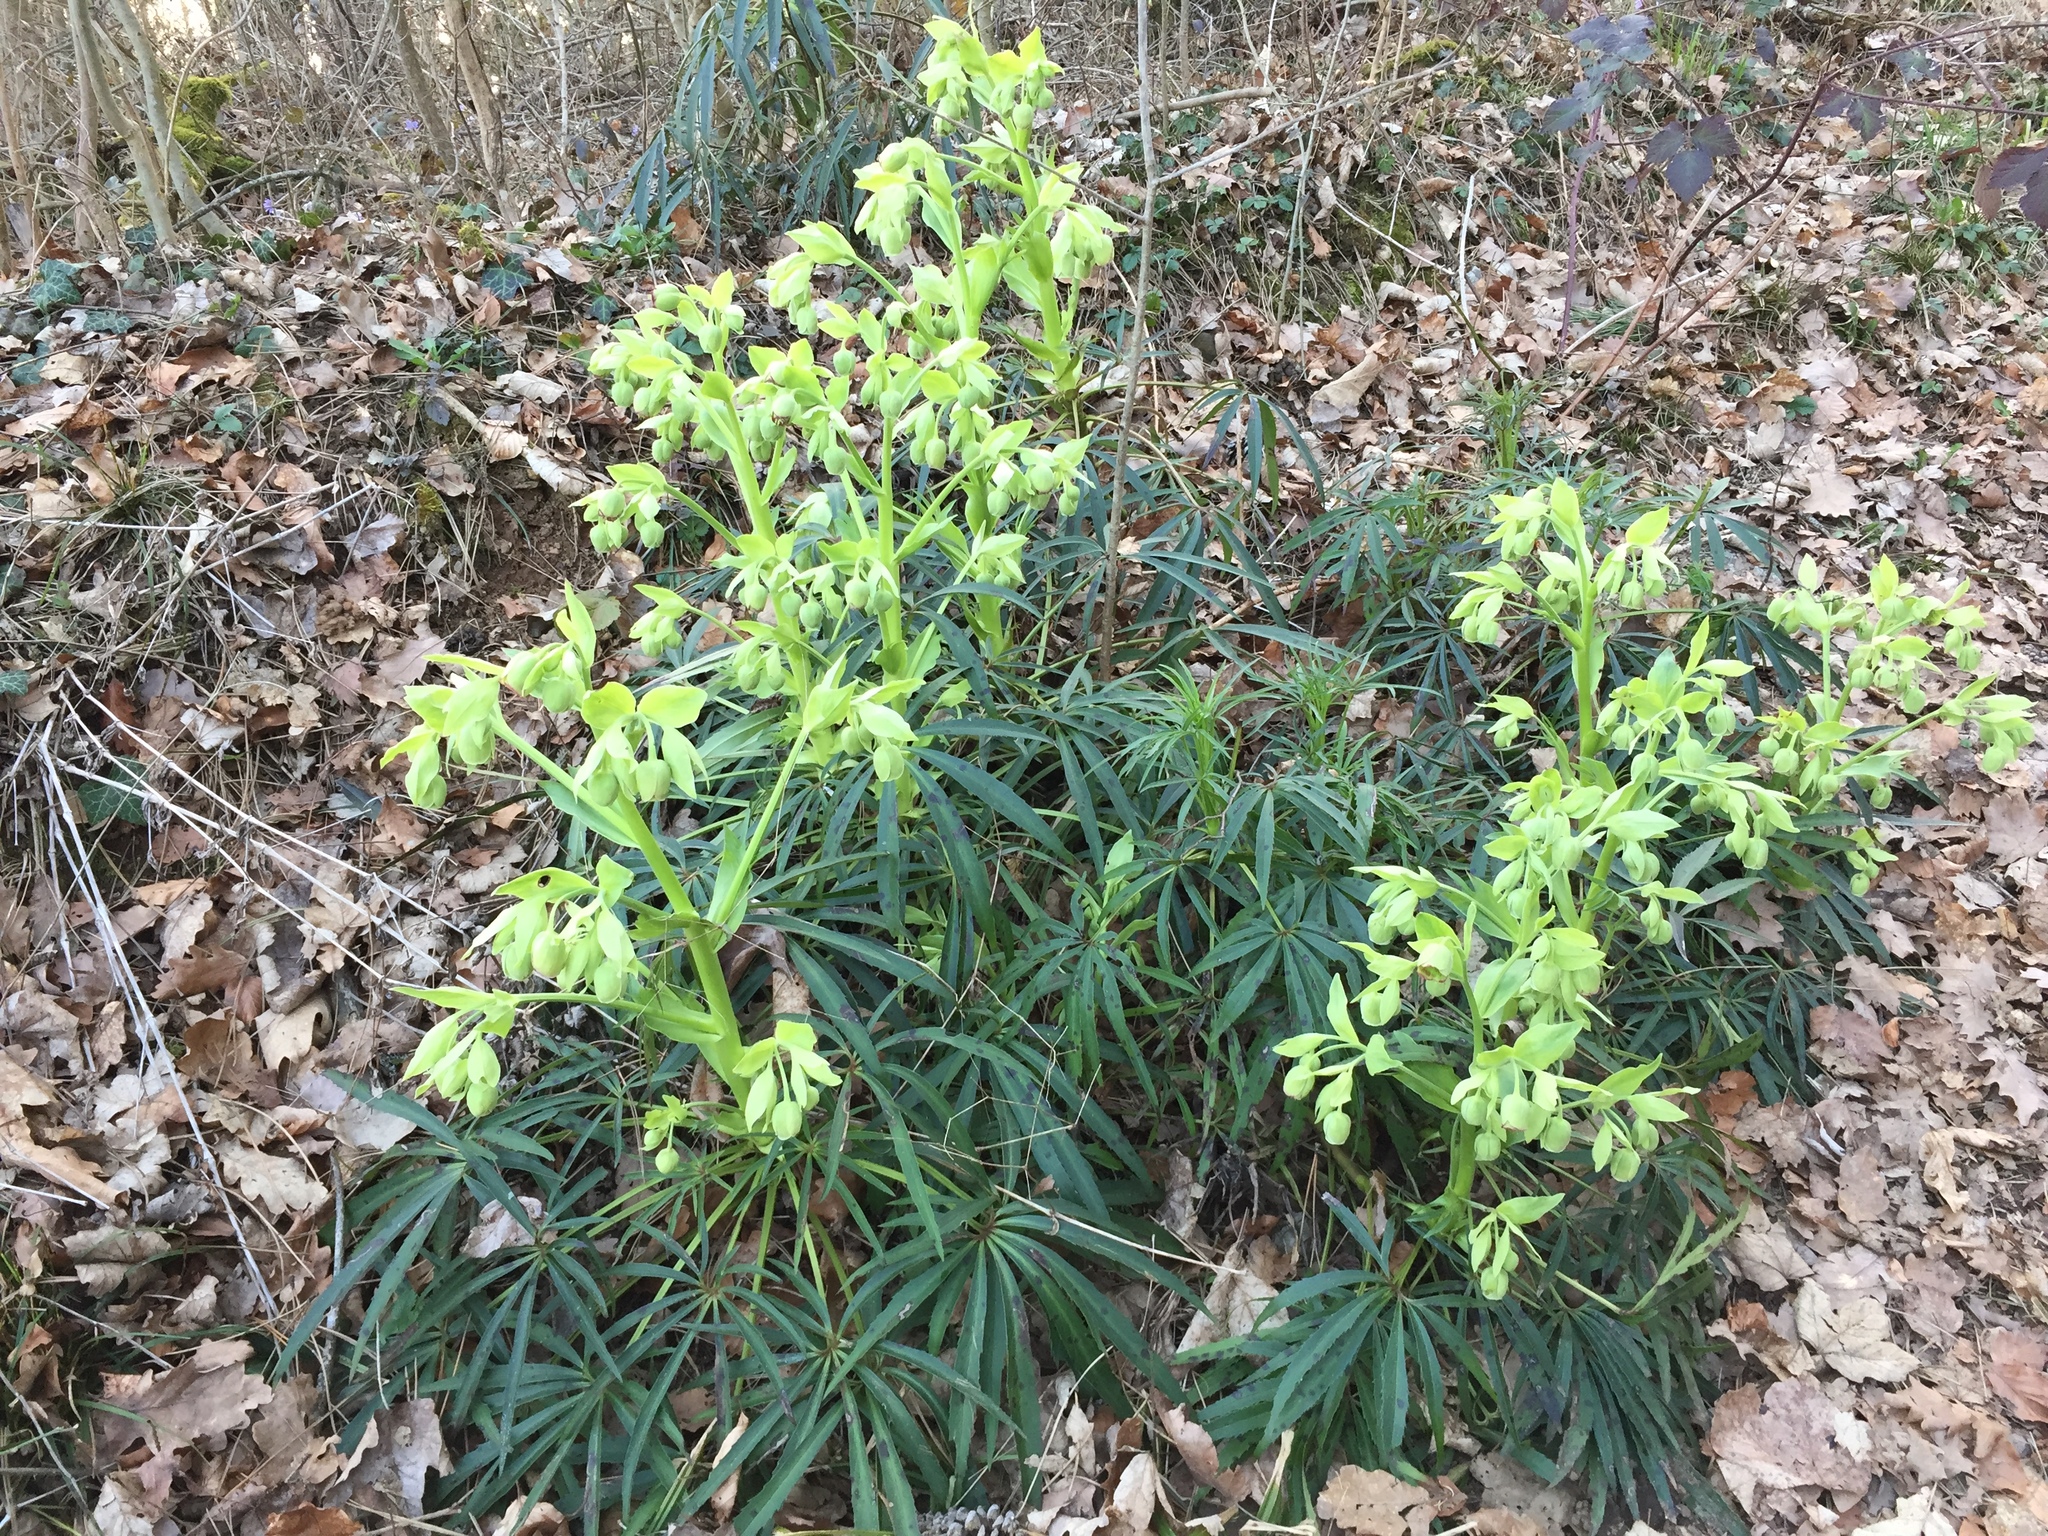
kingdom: Plantae
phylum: Tracheophyta
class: Magnoliopsida
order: Ranunculales
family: Ranunculaceae
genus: Helleborus
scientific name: Helleborus foetidus
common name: Stinking hellebore
